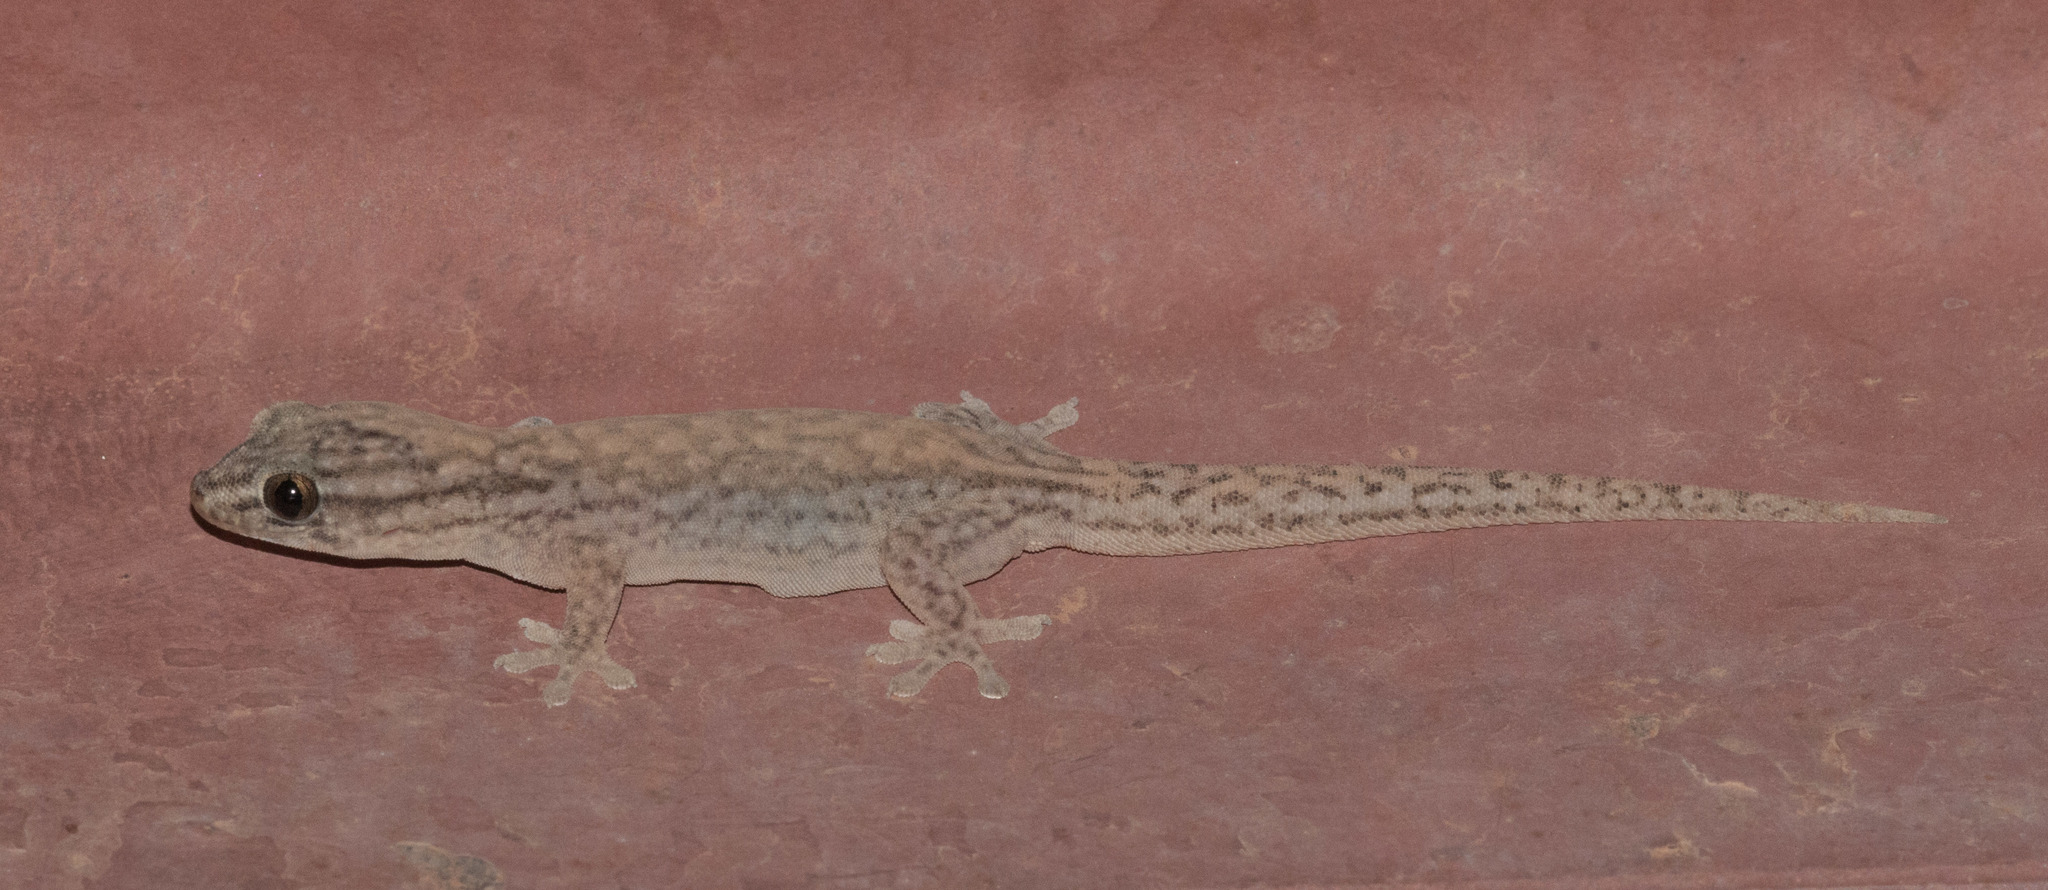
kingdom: Animalia
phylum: Chordata
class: Squamata
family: Gekkonidae
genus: Gehyra
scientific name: Gehyra versicolor
